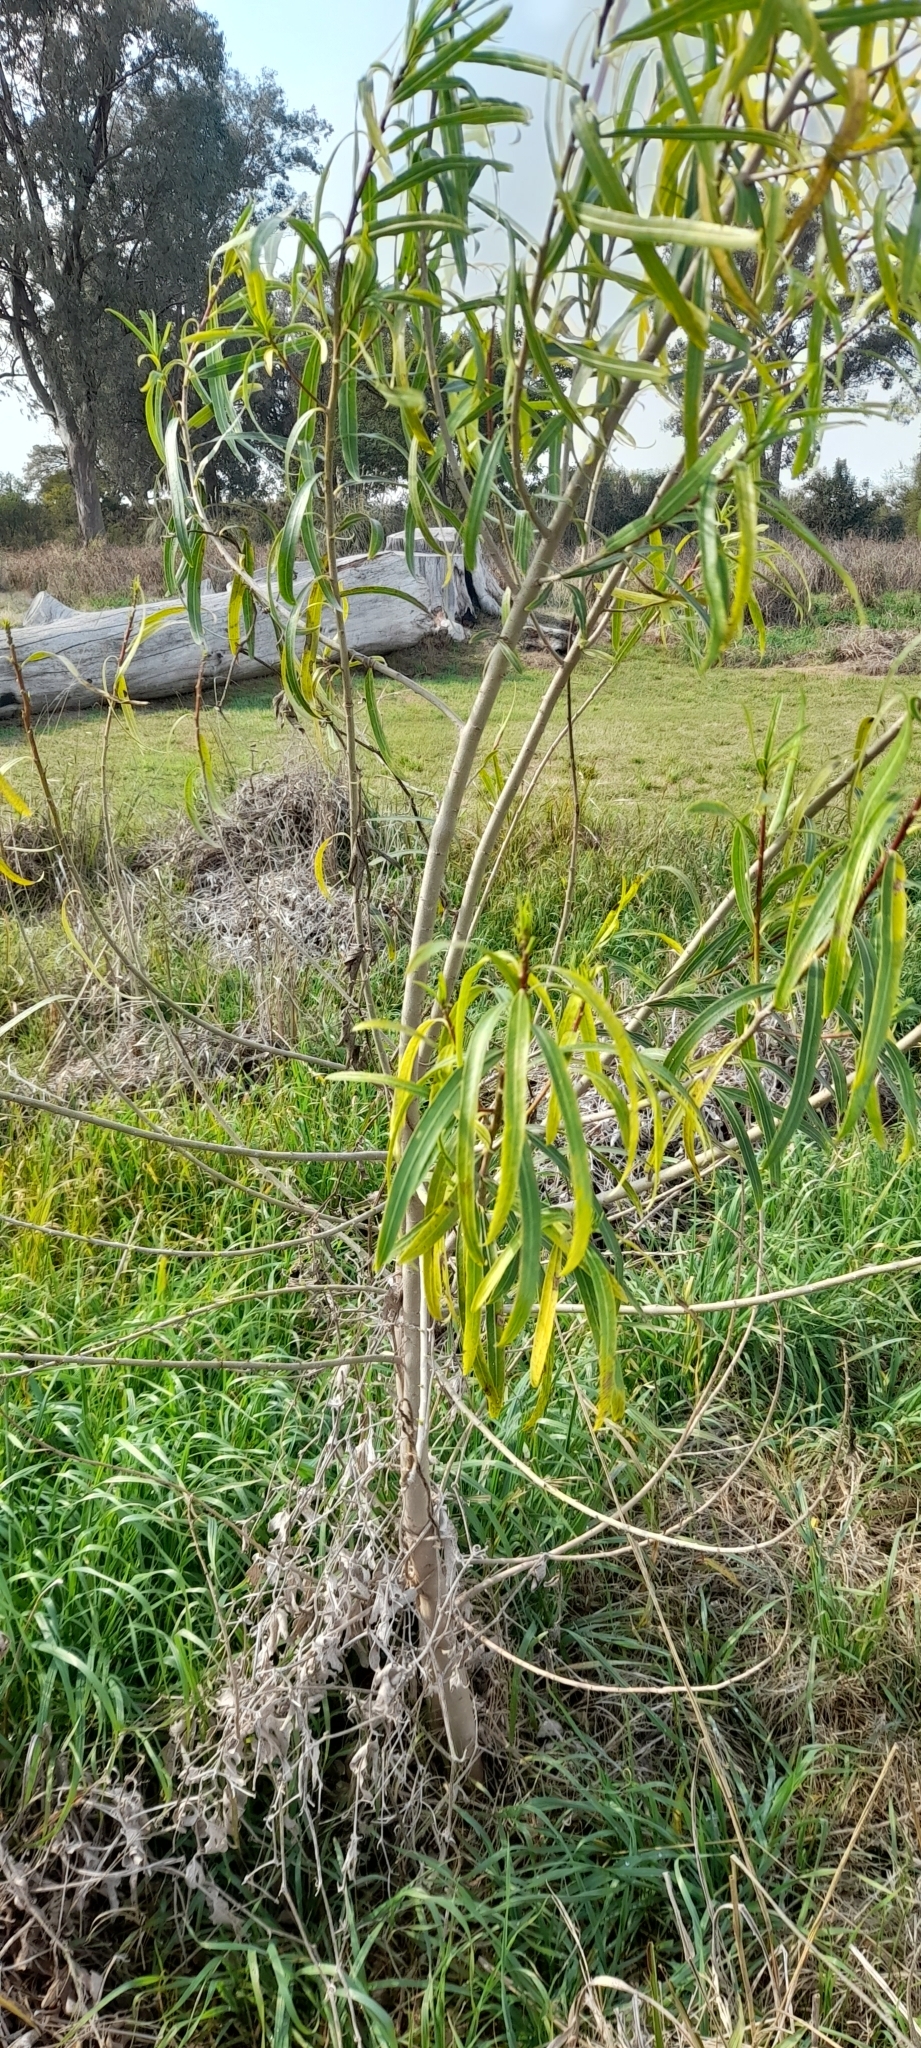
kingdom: Plantae
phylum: Tracheophyta
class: Magnoliopsida
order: Malpighiales
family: Euphorbiaceae
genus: Sapium
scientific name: Sapium haematospermum
